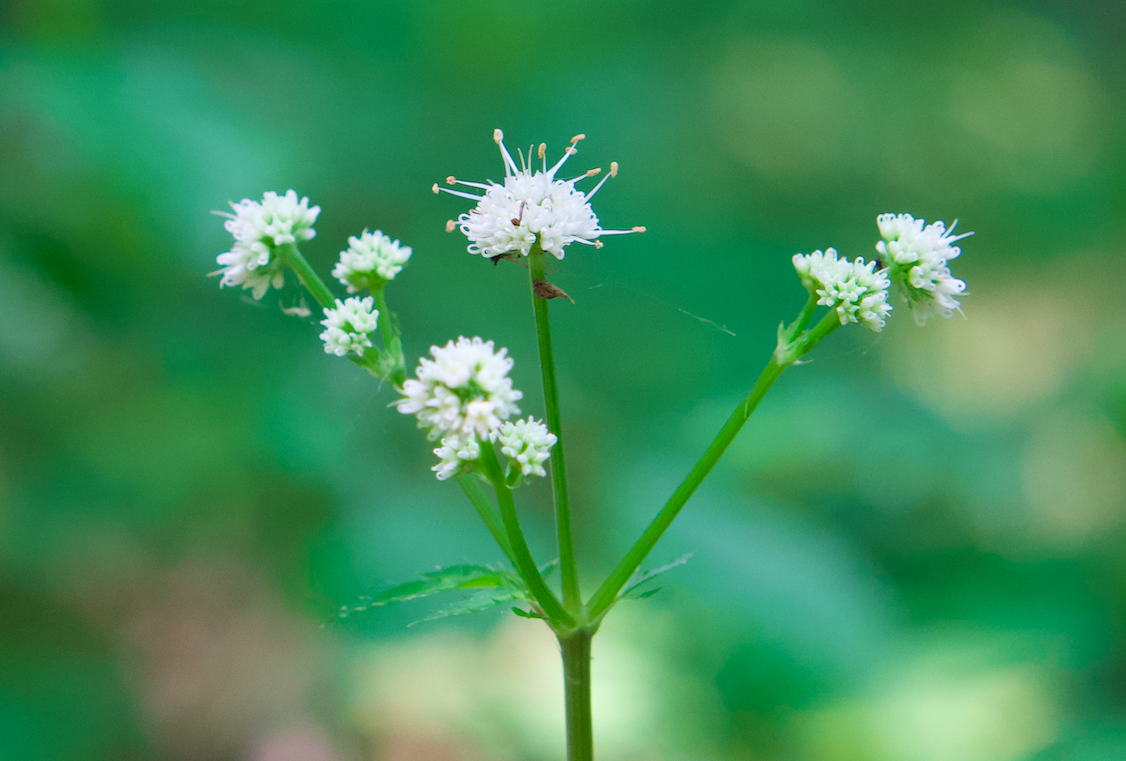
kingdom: Plantae
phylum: Tracheophyta
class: Magnoliopsida
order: Apiales
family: Apiaceae
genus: Sanicula
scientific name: Sanicula europaea
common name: Sanicle
